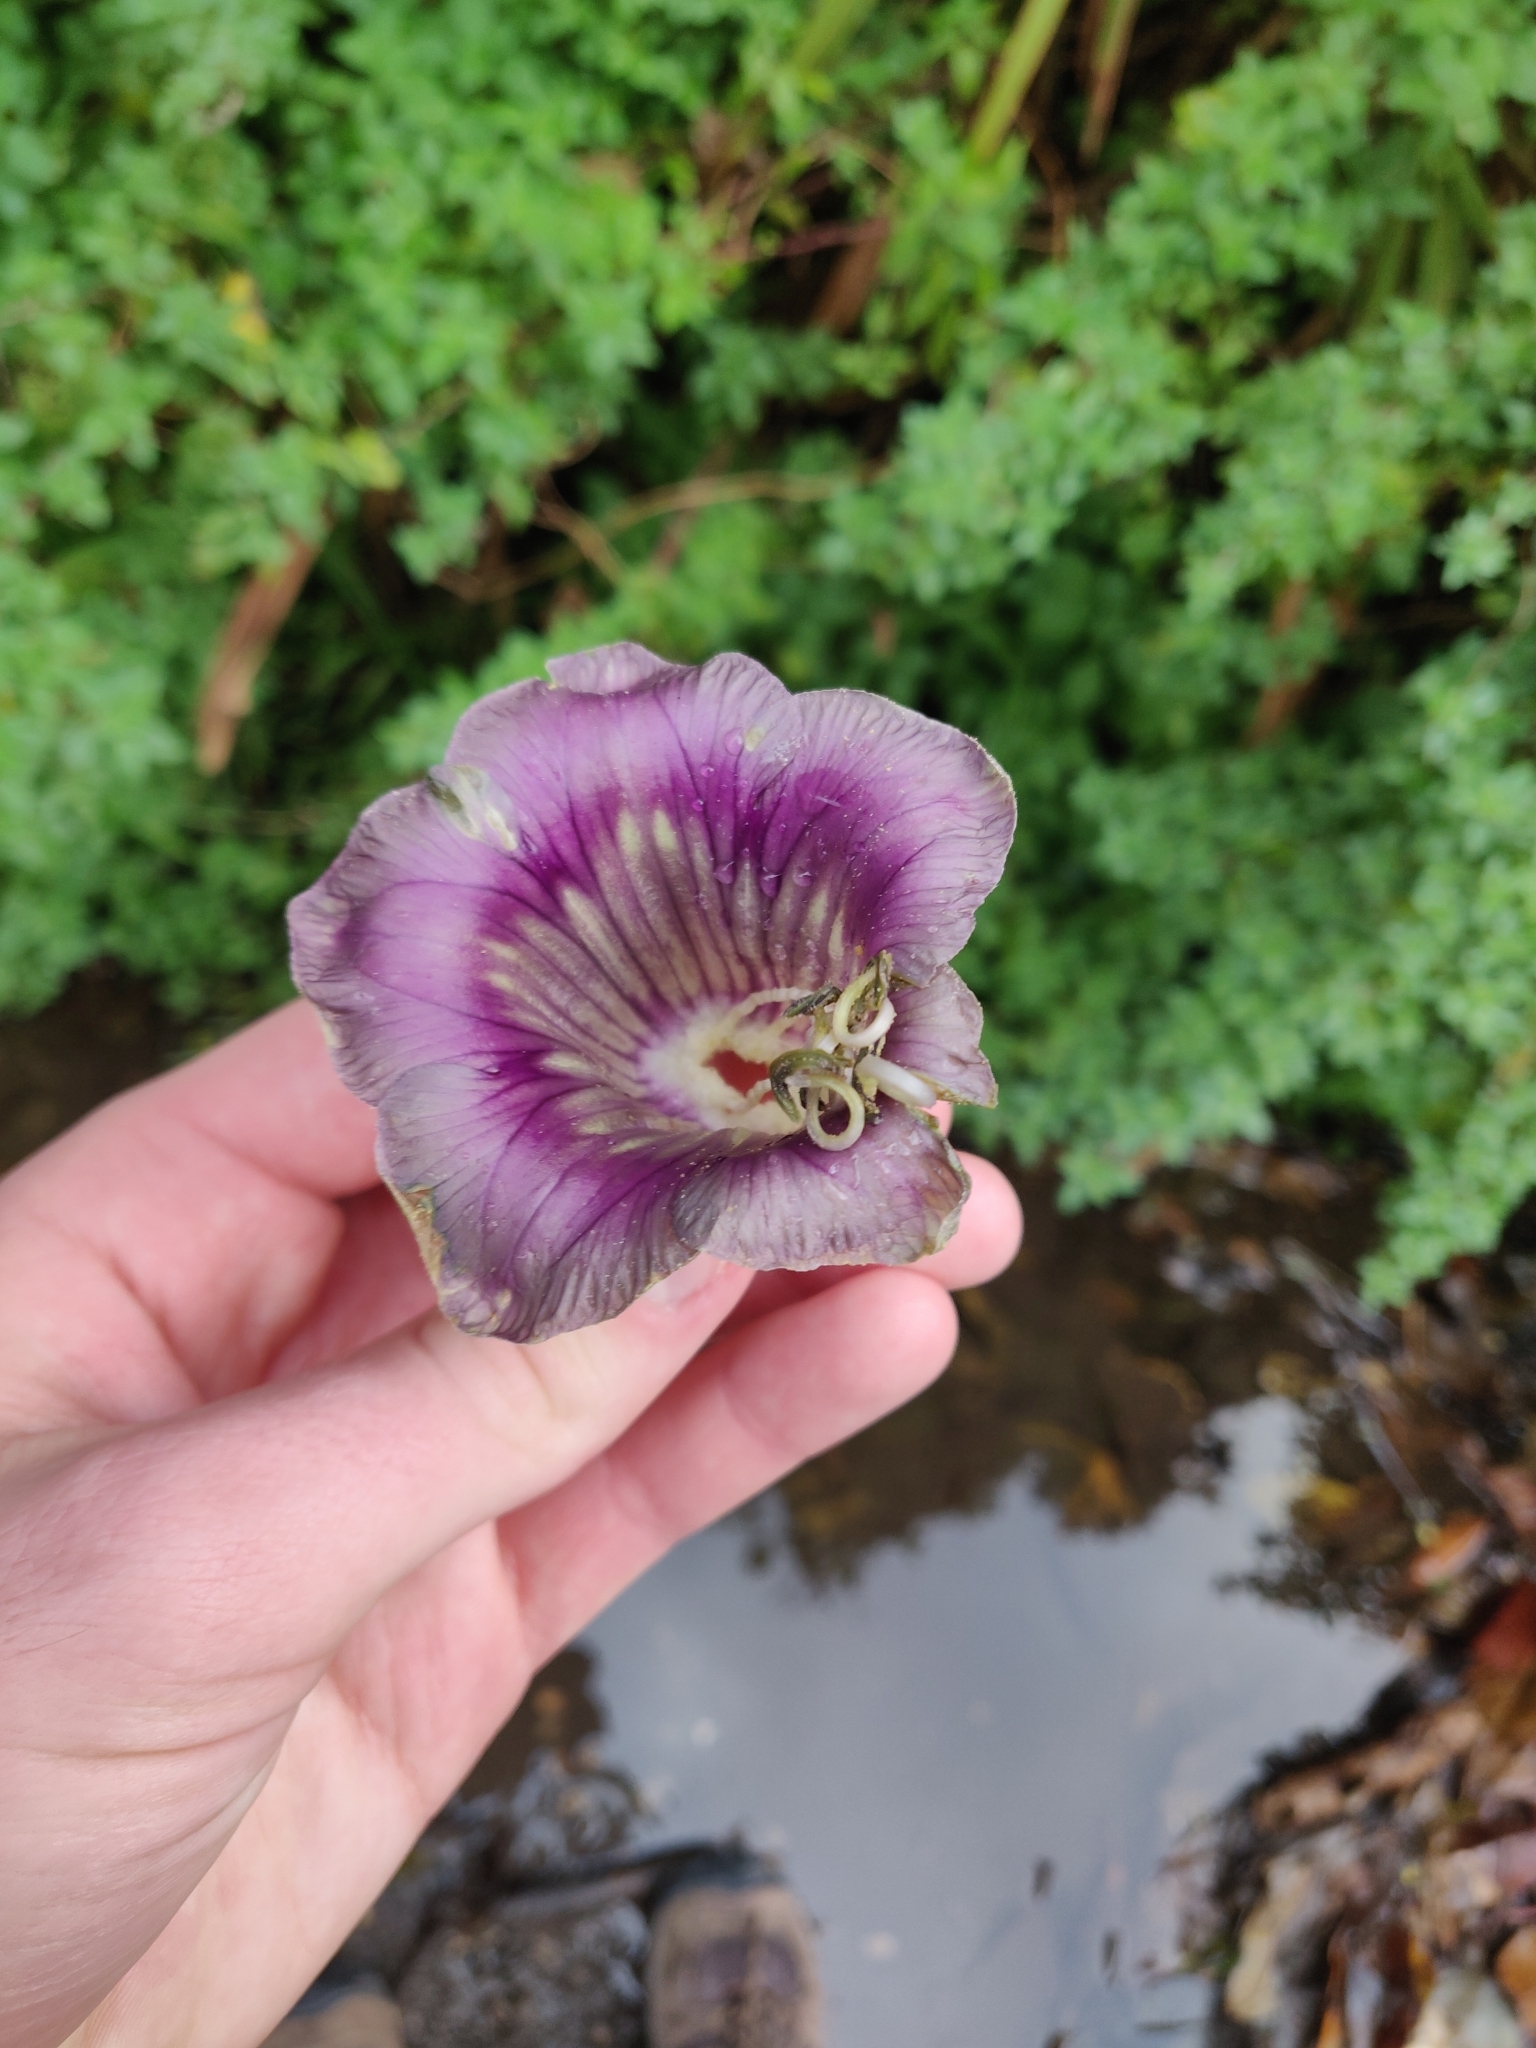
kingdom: Plantae
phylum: Tracheophyta
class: Magnoliopsida
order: Ericales
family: Polemoniaceae
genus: Cobaea
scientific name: Cobaea scandens
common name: Cup-and-saucer-vine
